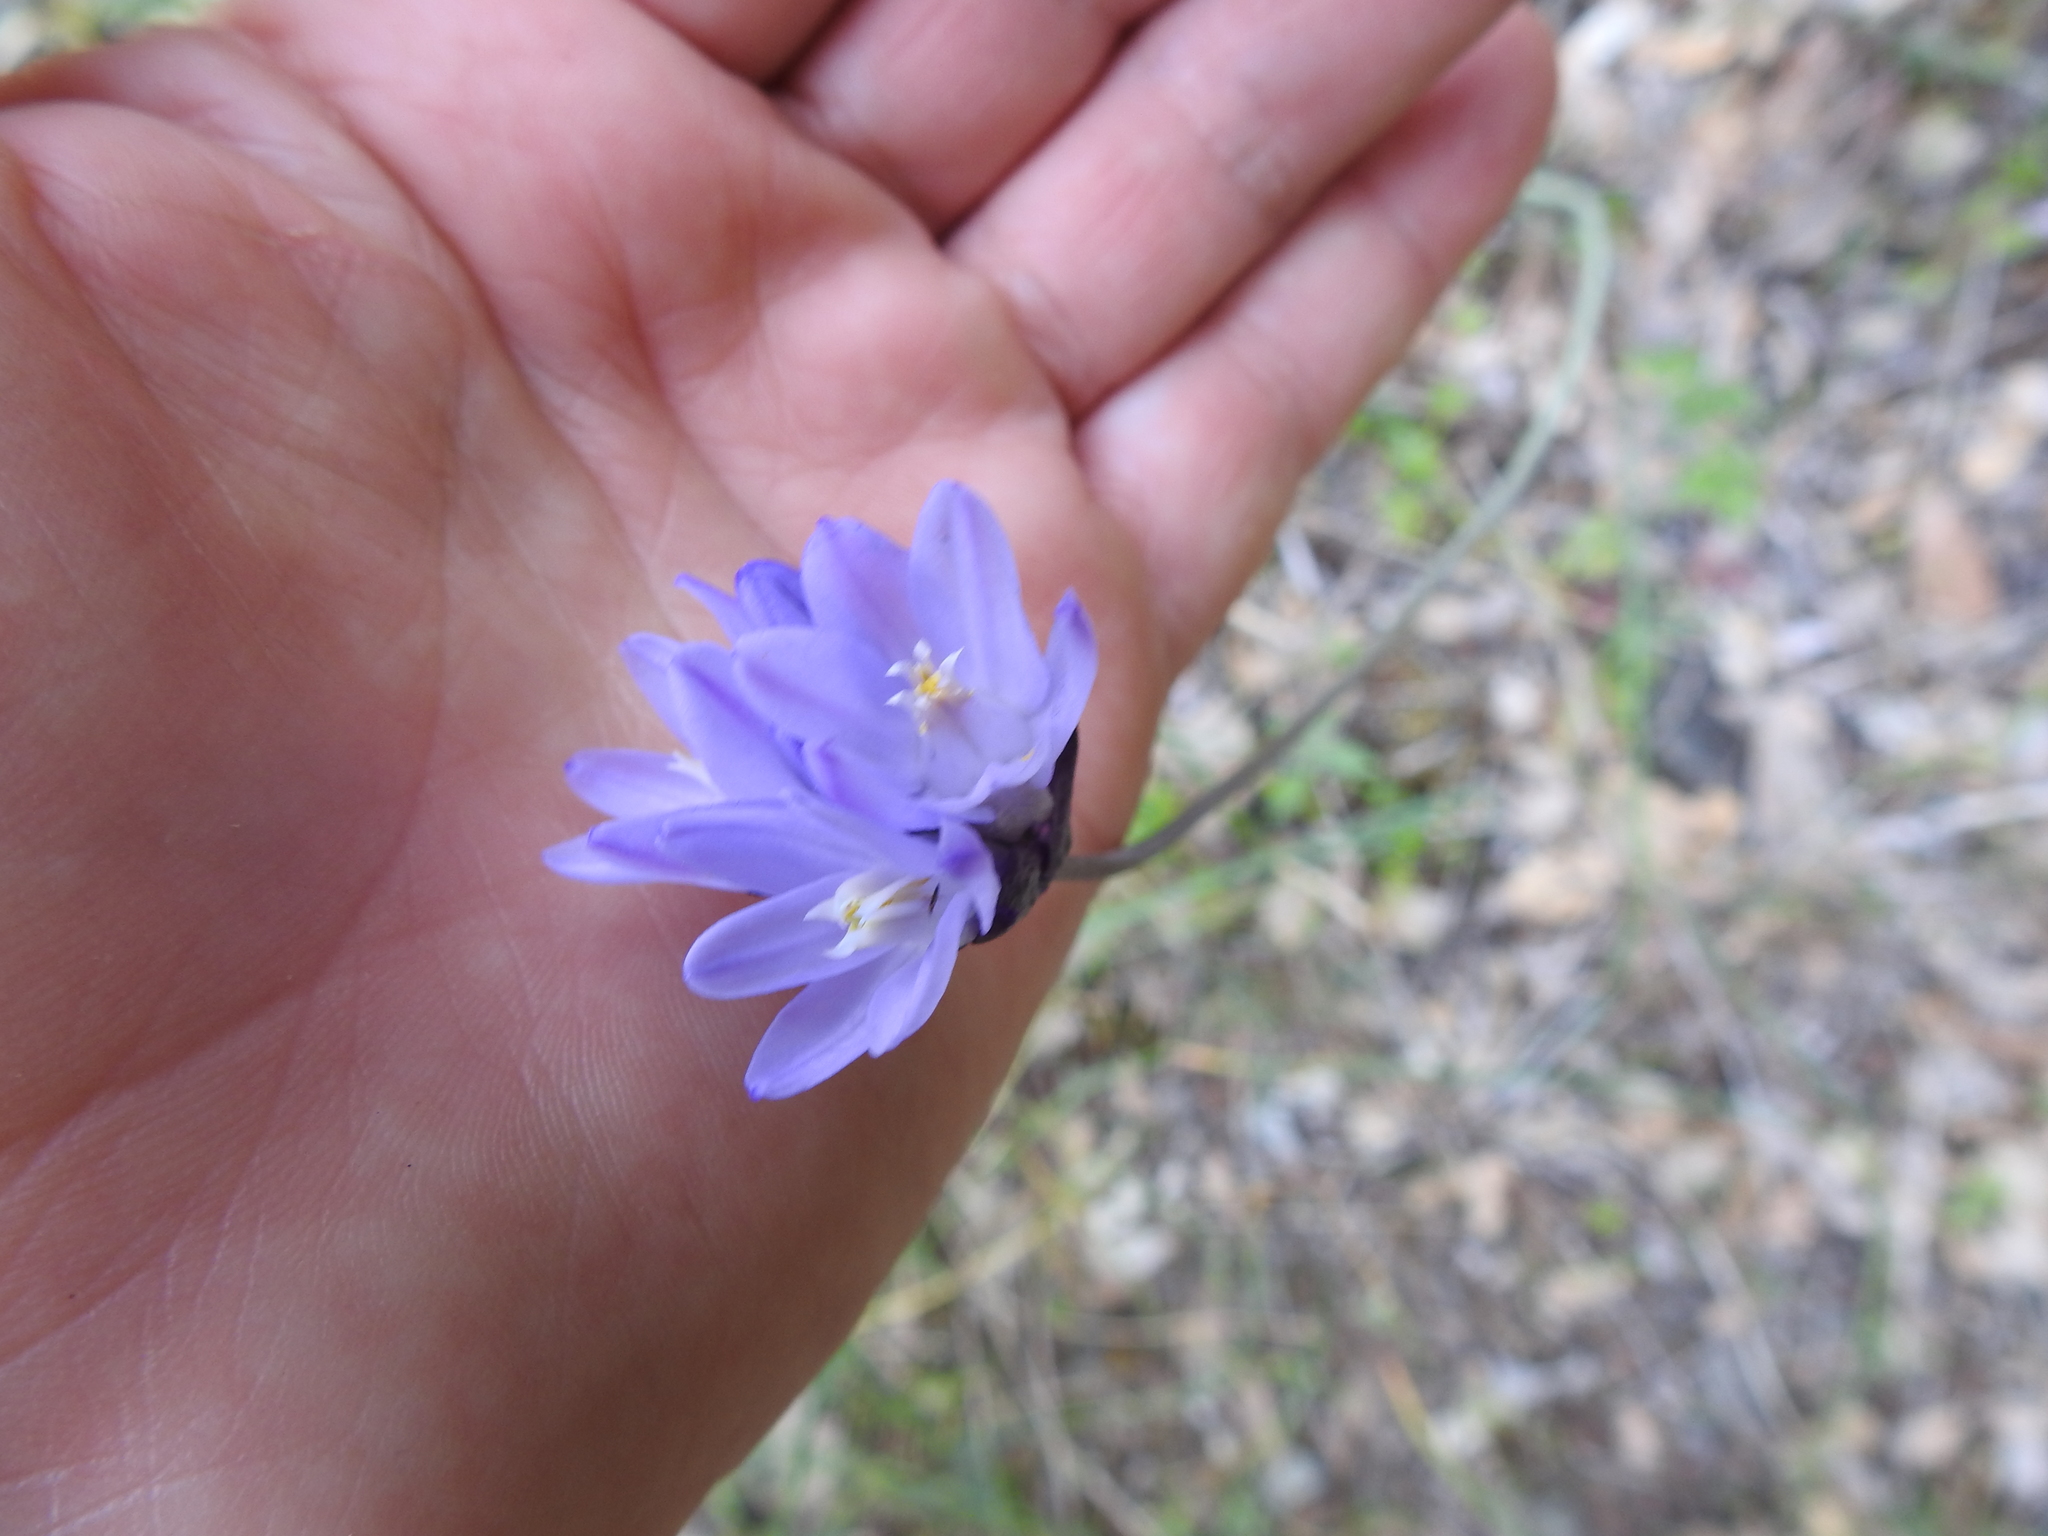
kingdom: Plantae
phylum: Tracheophyta
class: Liliopsida
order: Asparagales
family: Asparagaceae
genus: Dipterostemon
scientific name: Dipterostemon capitatus
